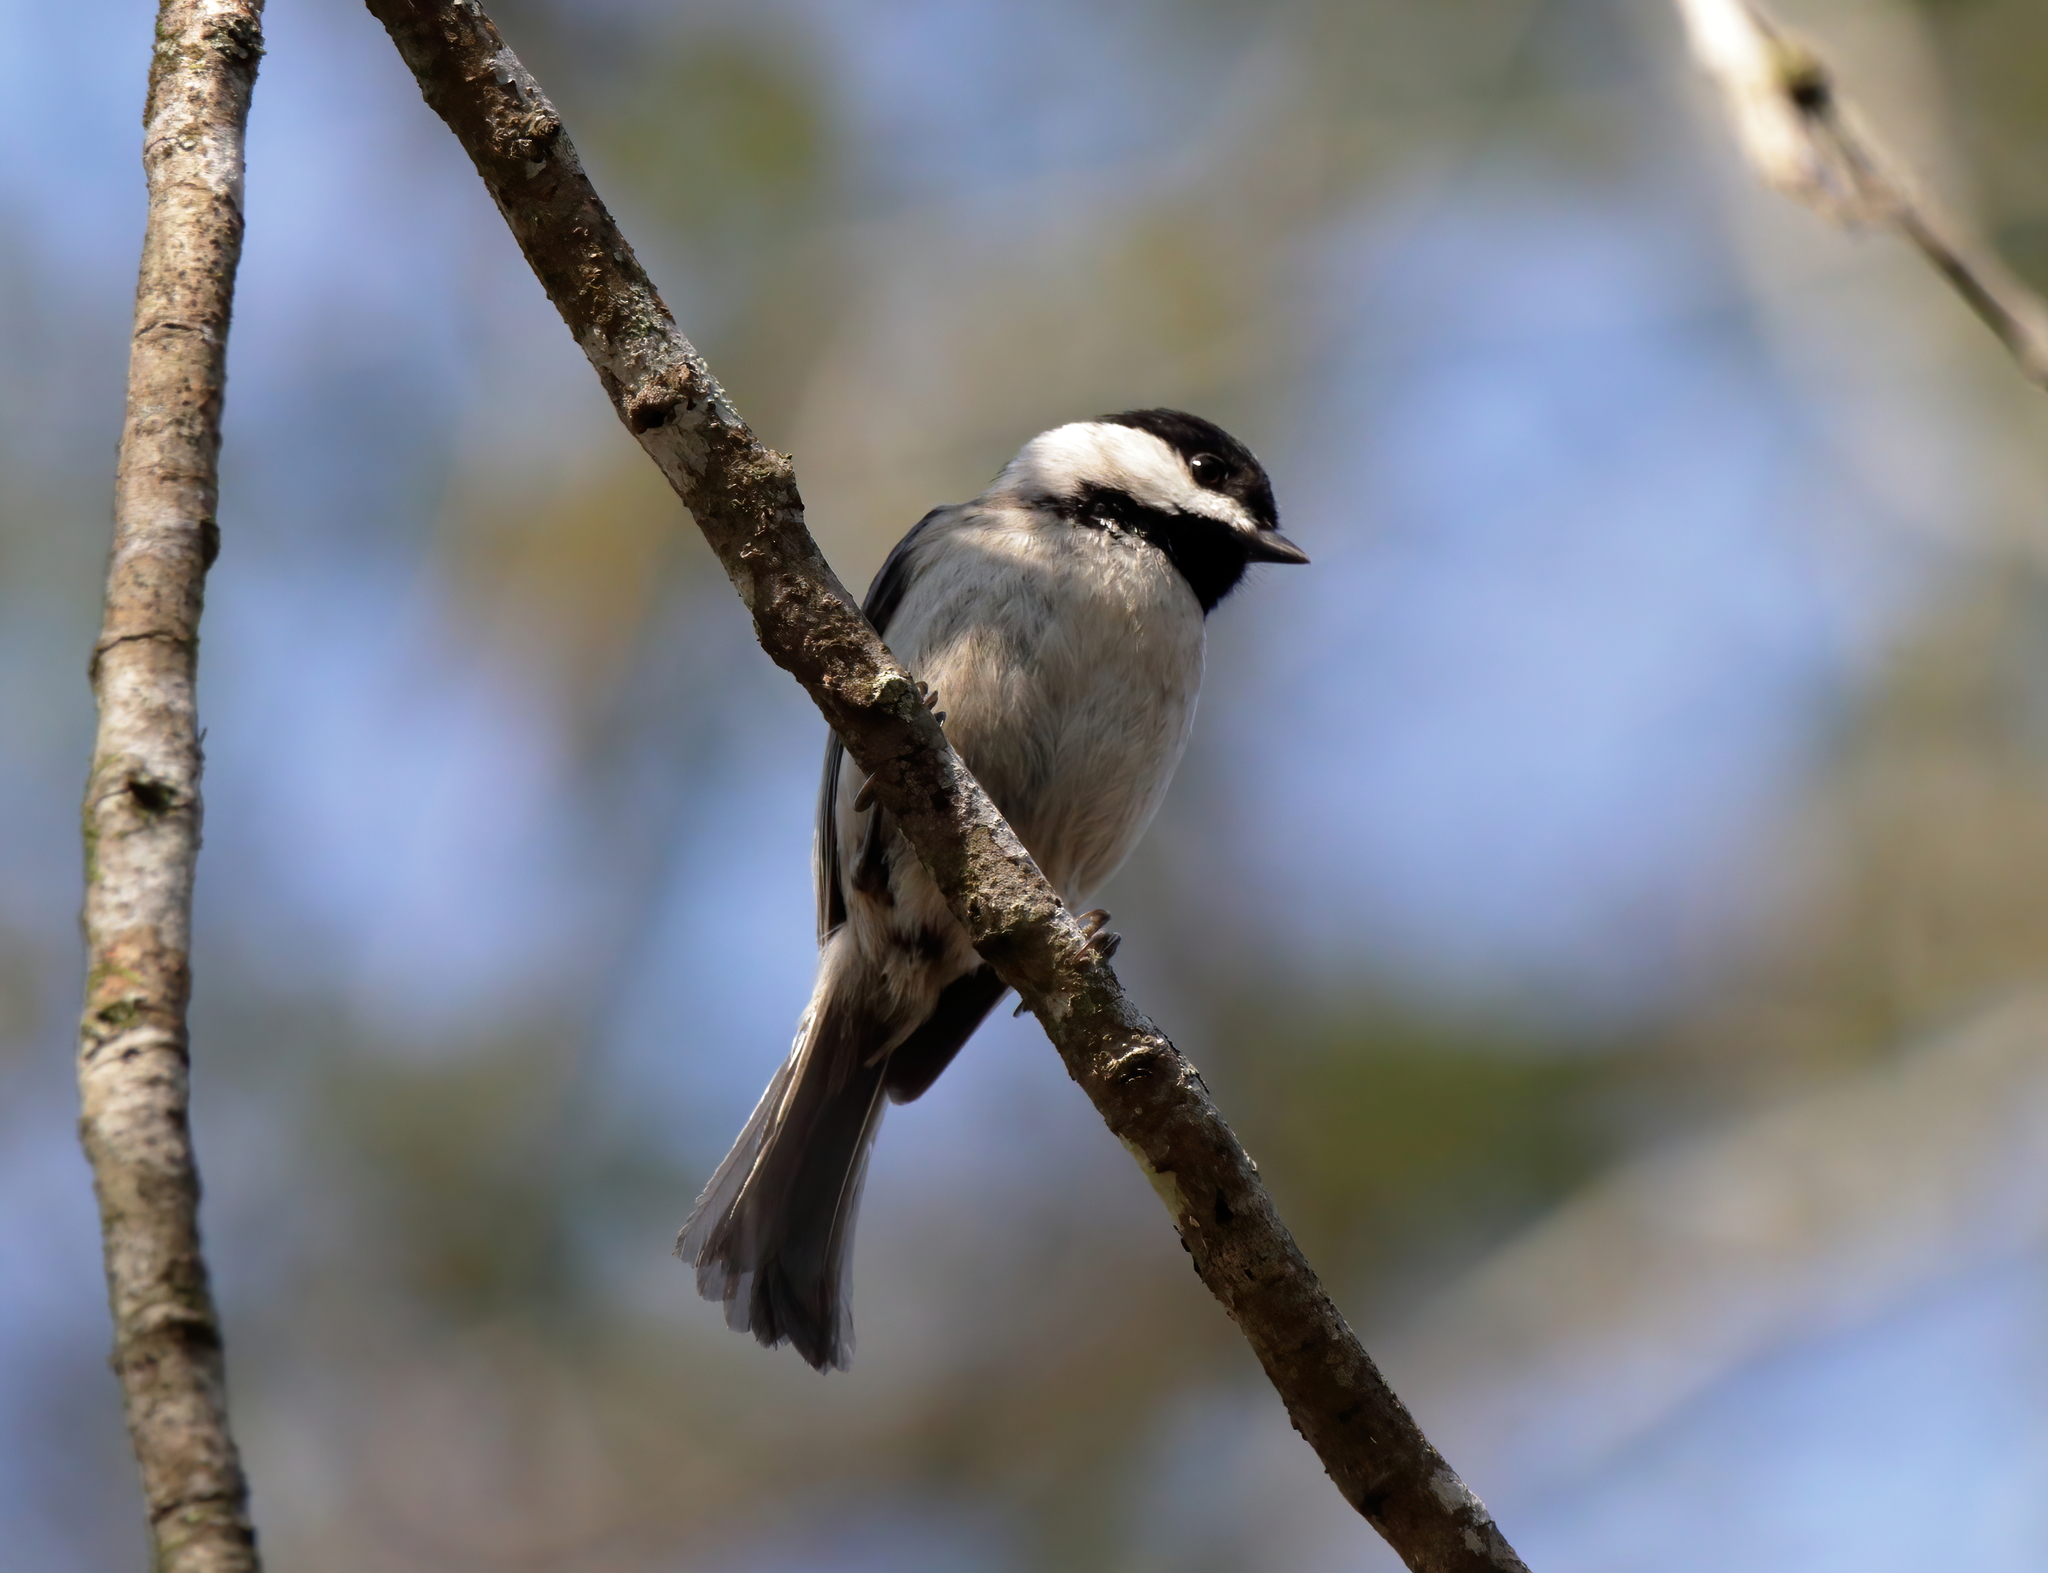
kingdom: Animalia
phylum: Chordata
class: Aves
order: Passeriformes
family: Paridae
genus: Poecile
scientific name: Poecile carolinensis
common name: Carolina chickadee
